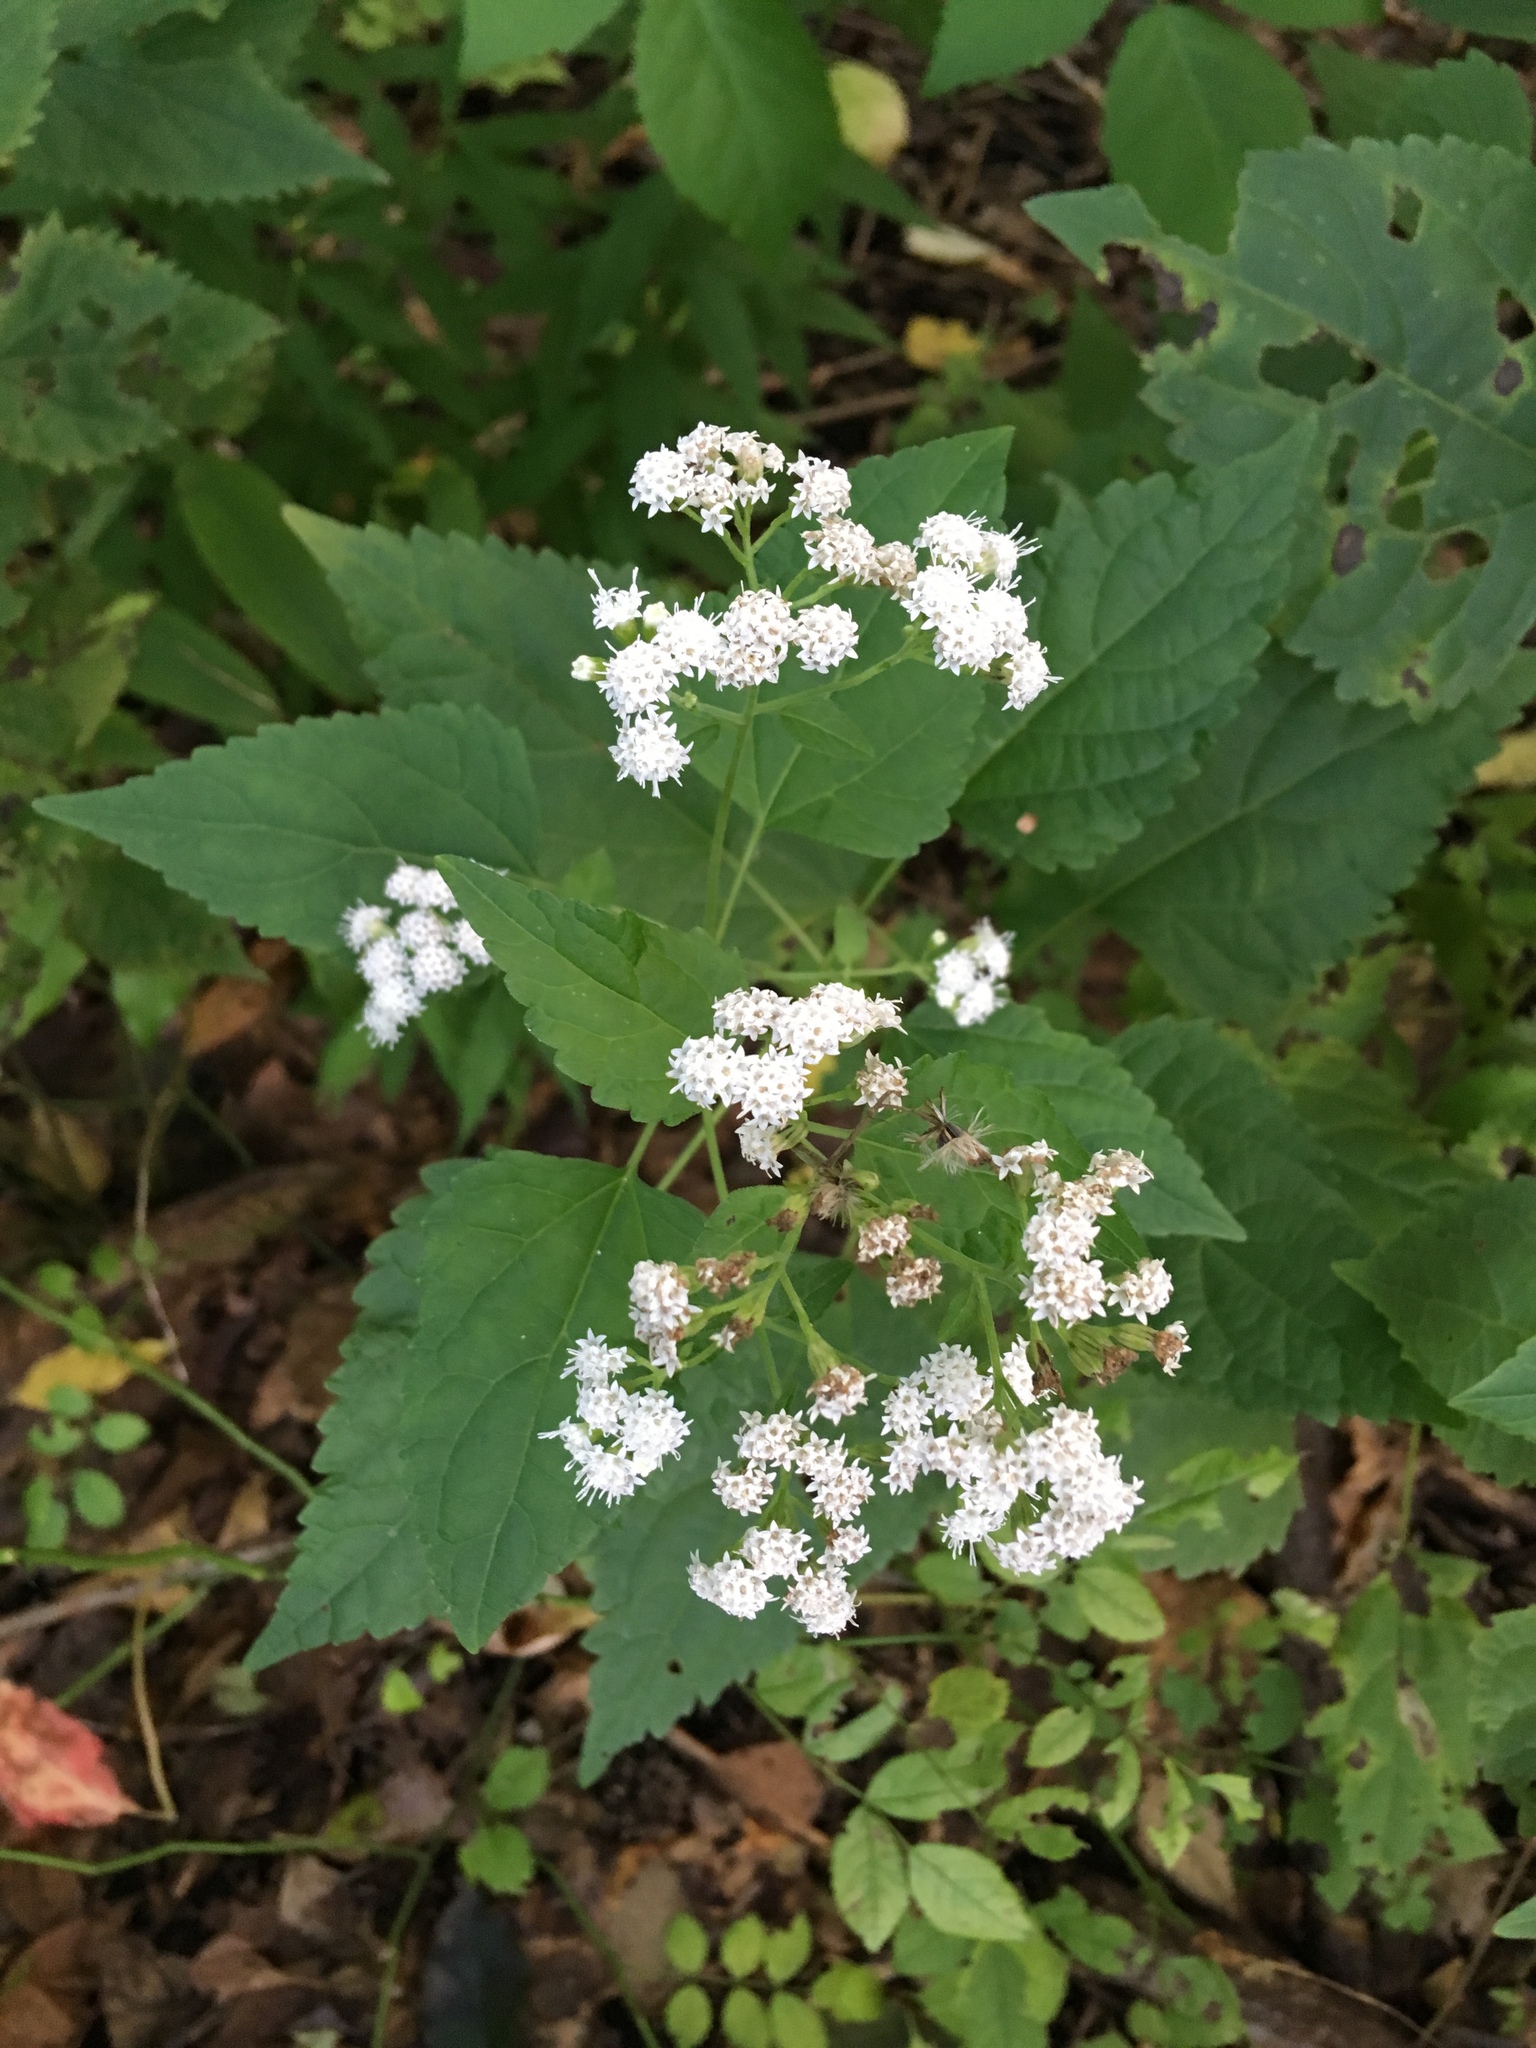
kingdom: Plantae
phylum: Tracheophyta
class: Magnoliopsida
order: Asterales
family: Asteraceae
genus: Ageratina
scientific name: Ageratina altissima
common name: White snakeroot
